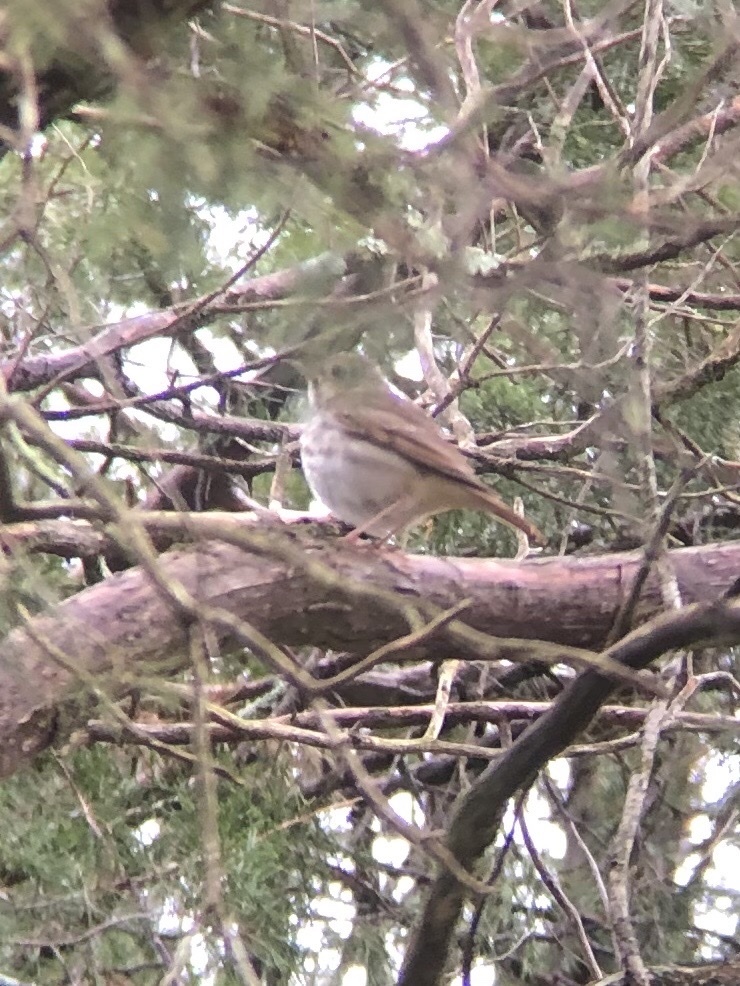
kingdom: Animalia
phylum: Chordata
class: Aves
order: Passeriformes
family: Turdidae
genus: Catharus
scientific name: Catharus guttatus
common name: Hermit thrush
